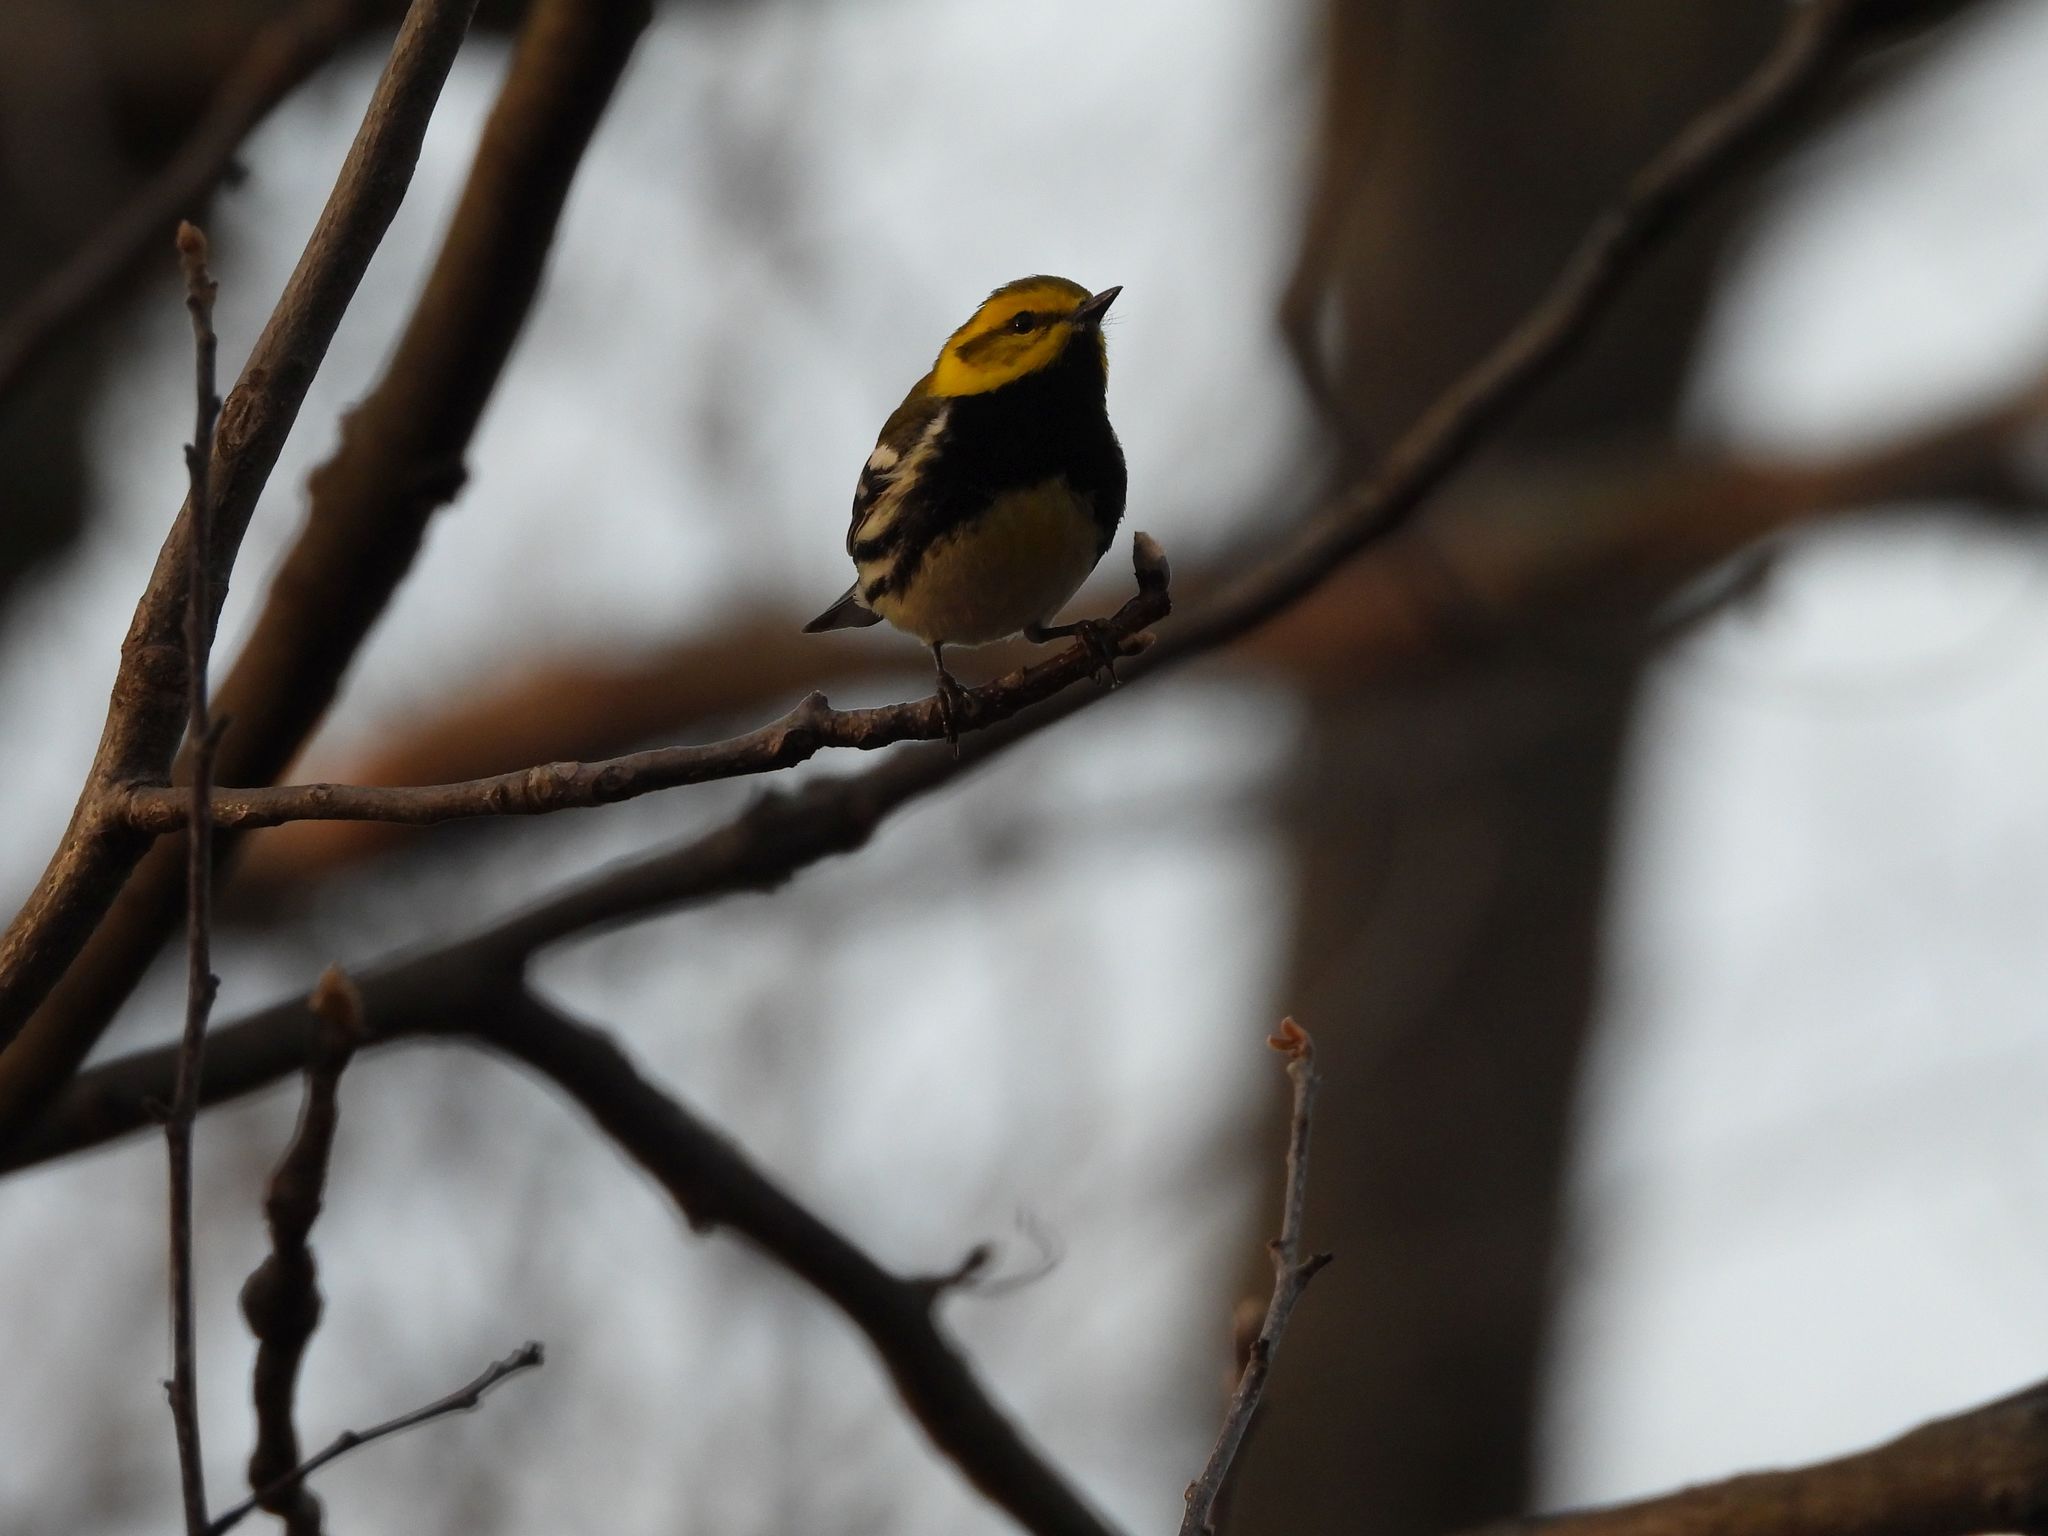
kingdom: Animalia
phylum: Chordata
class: Aves
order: Passeriformes
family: Parulidae
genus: Setophaga
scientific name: Setophaga virens
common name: Black-throated green warbler
